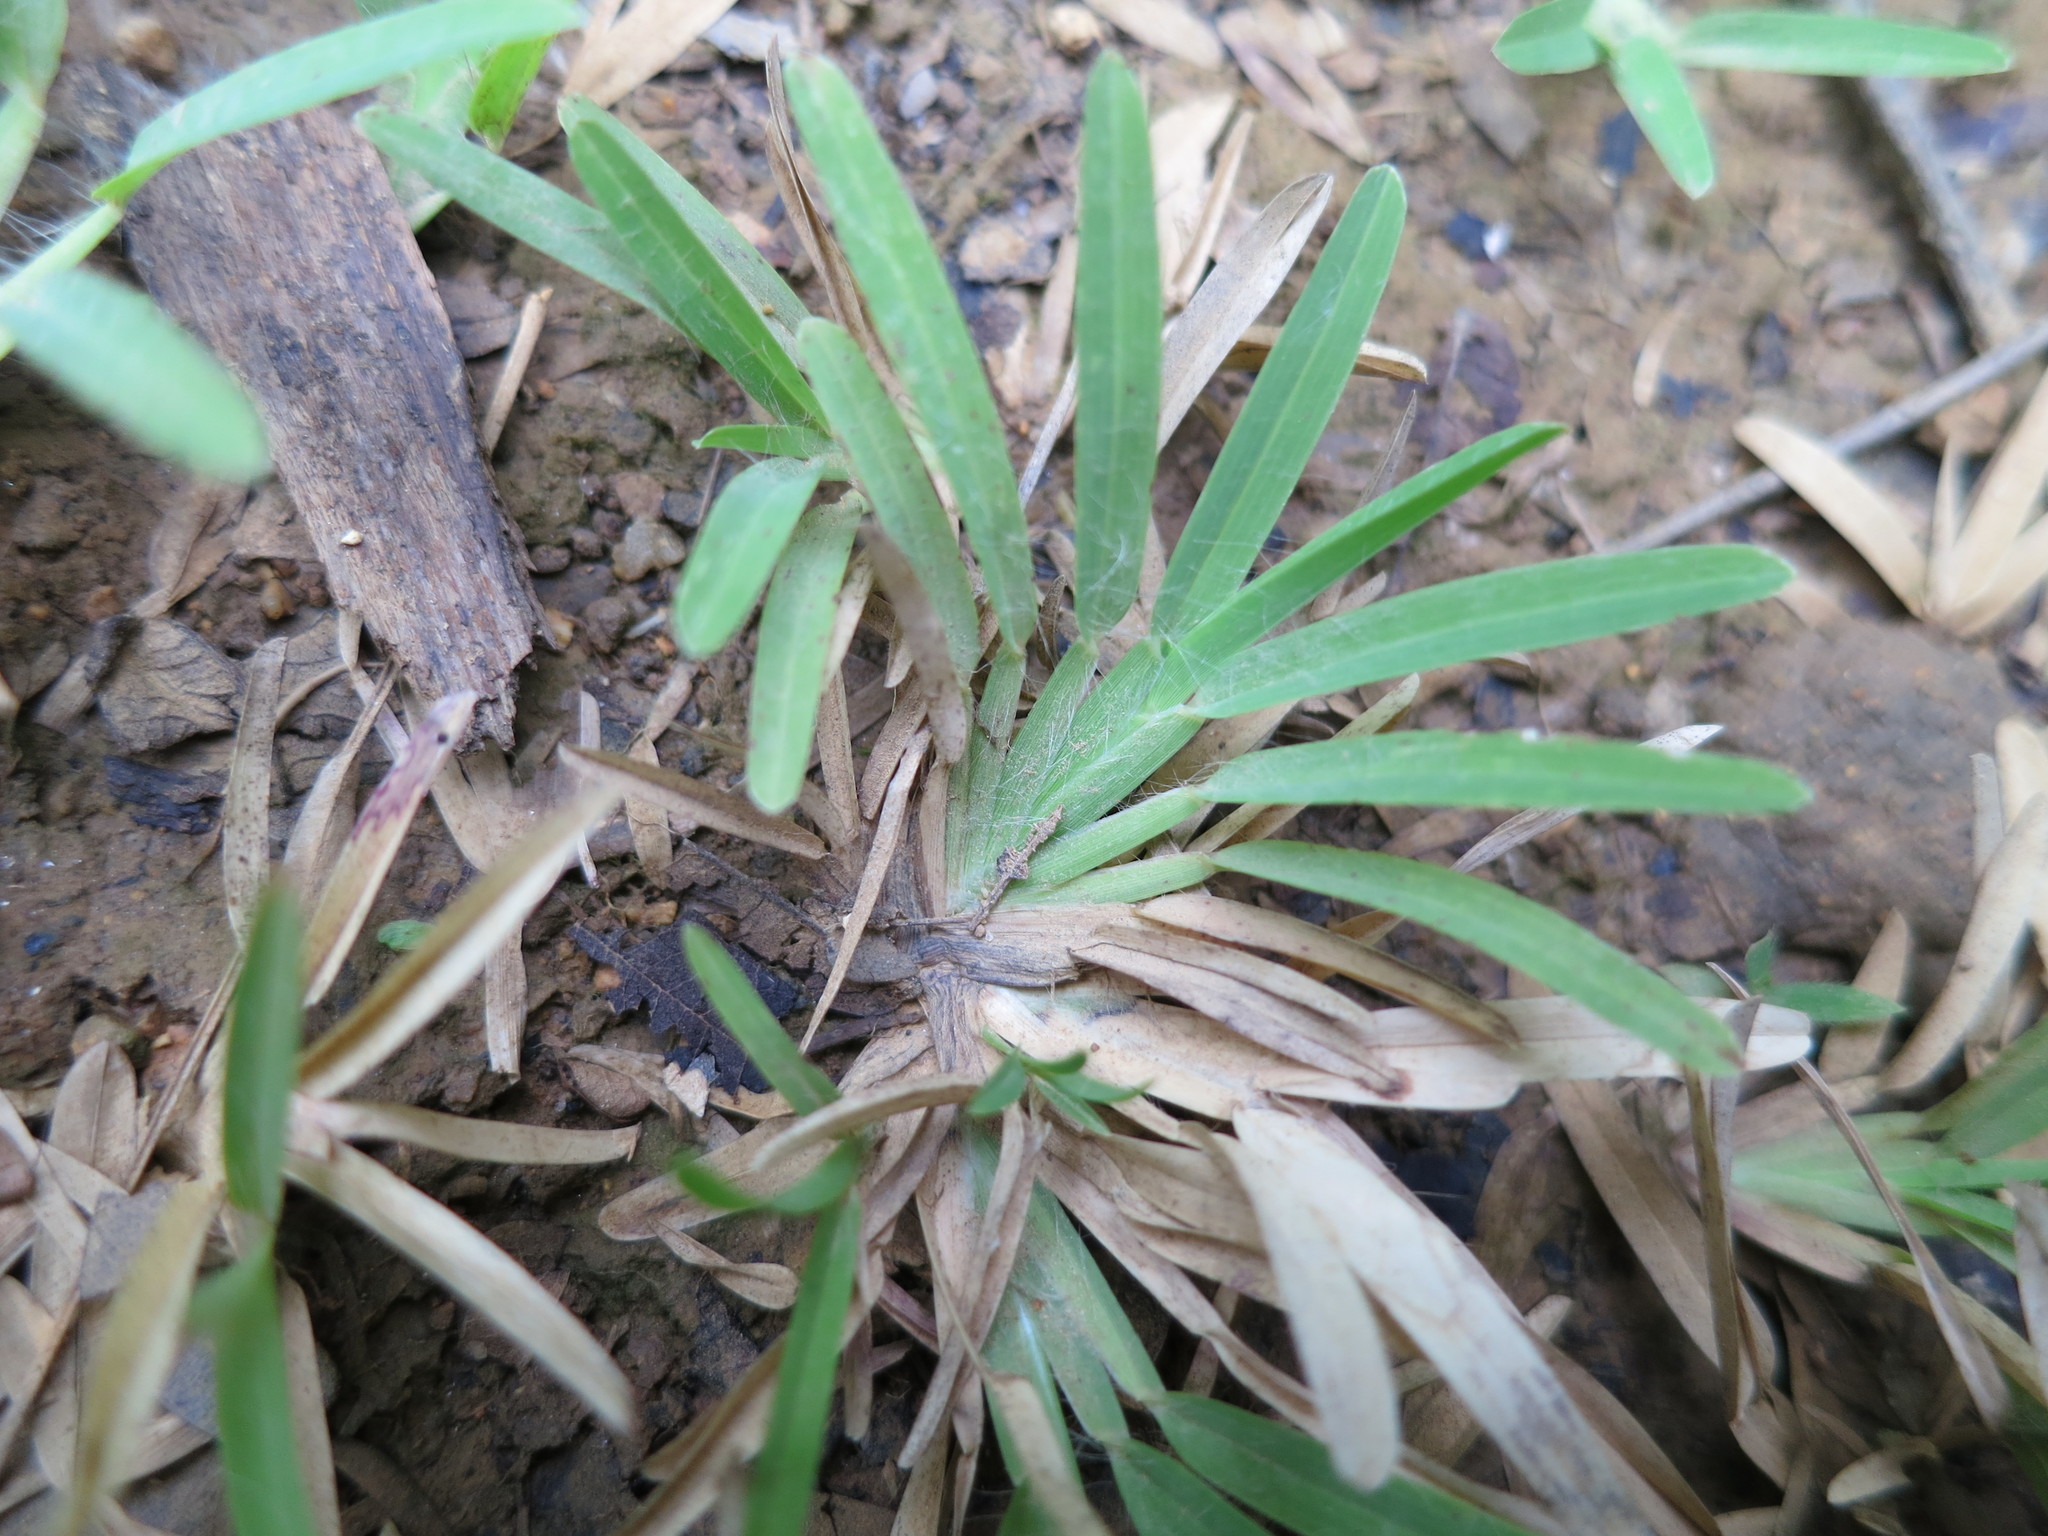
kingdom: Plantae
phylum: Tracheophyta
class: Liliopsida
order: Poales
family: Poaceae
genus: Neostapfiella
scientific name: Neostapfiella perrieri
